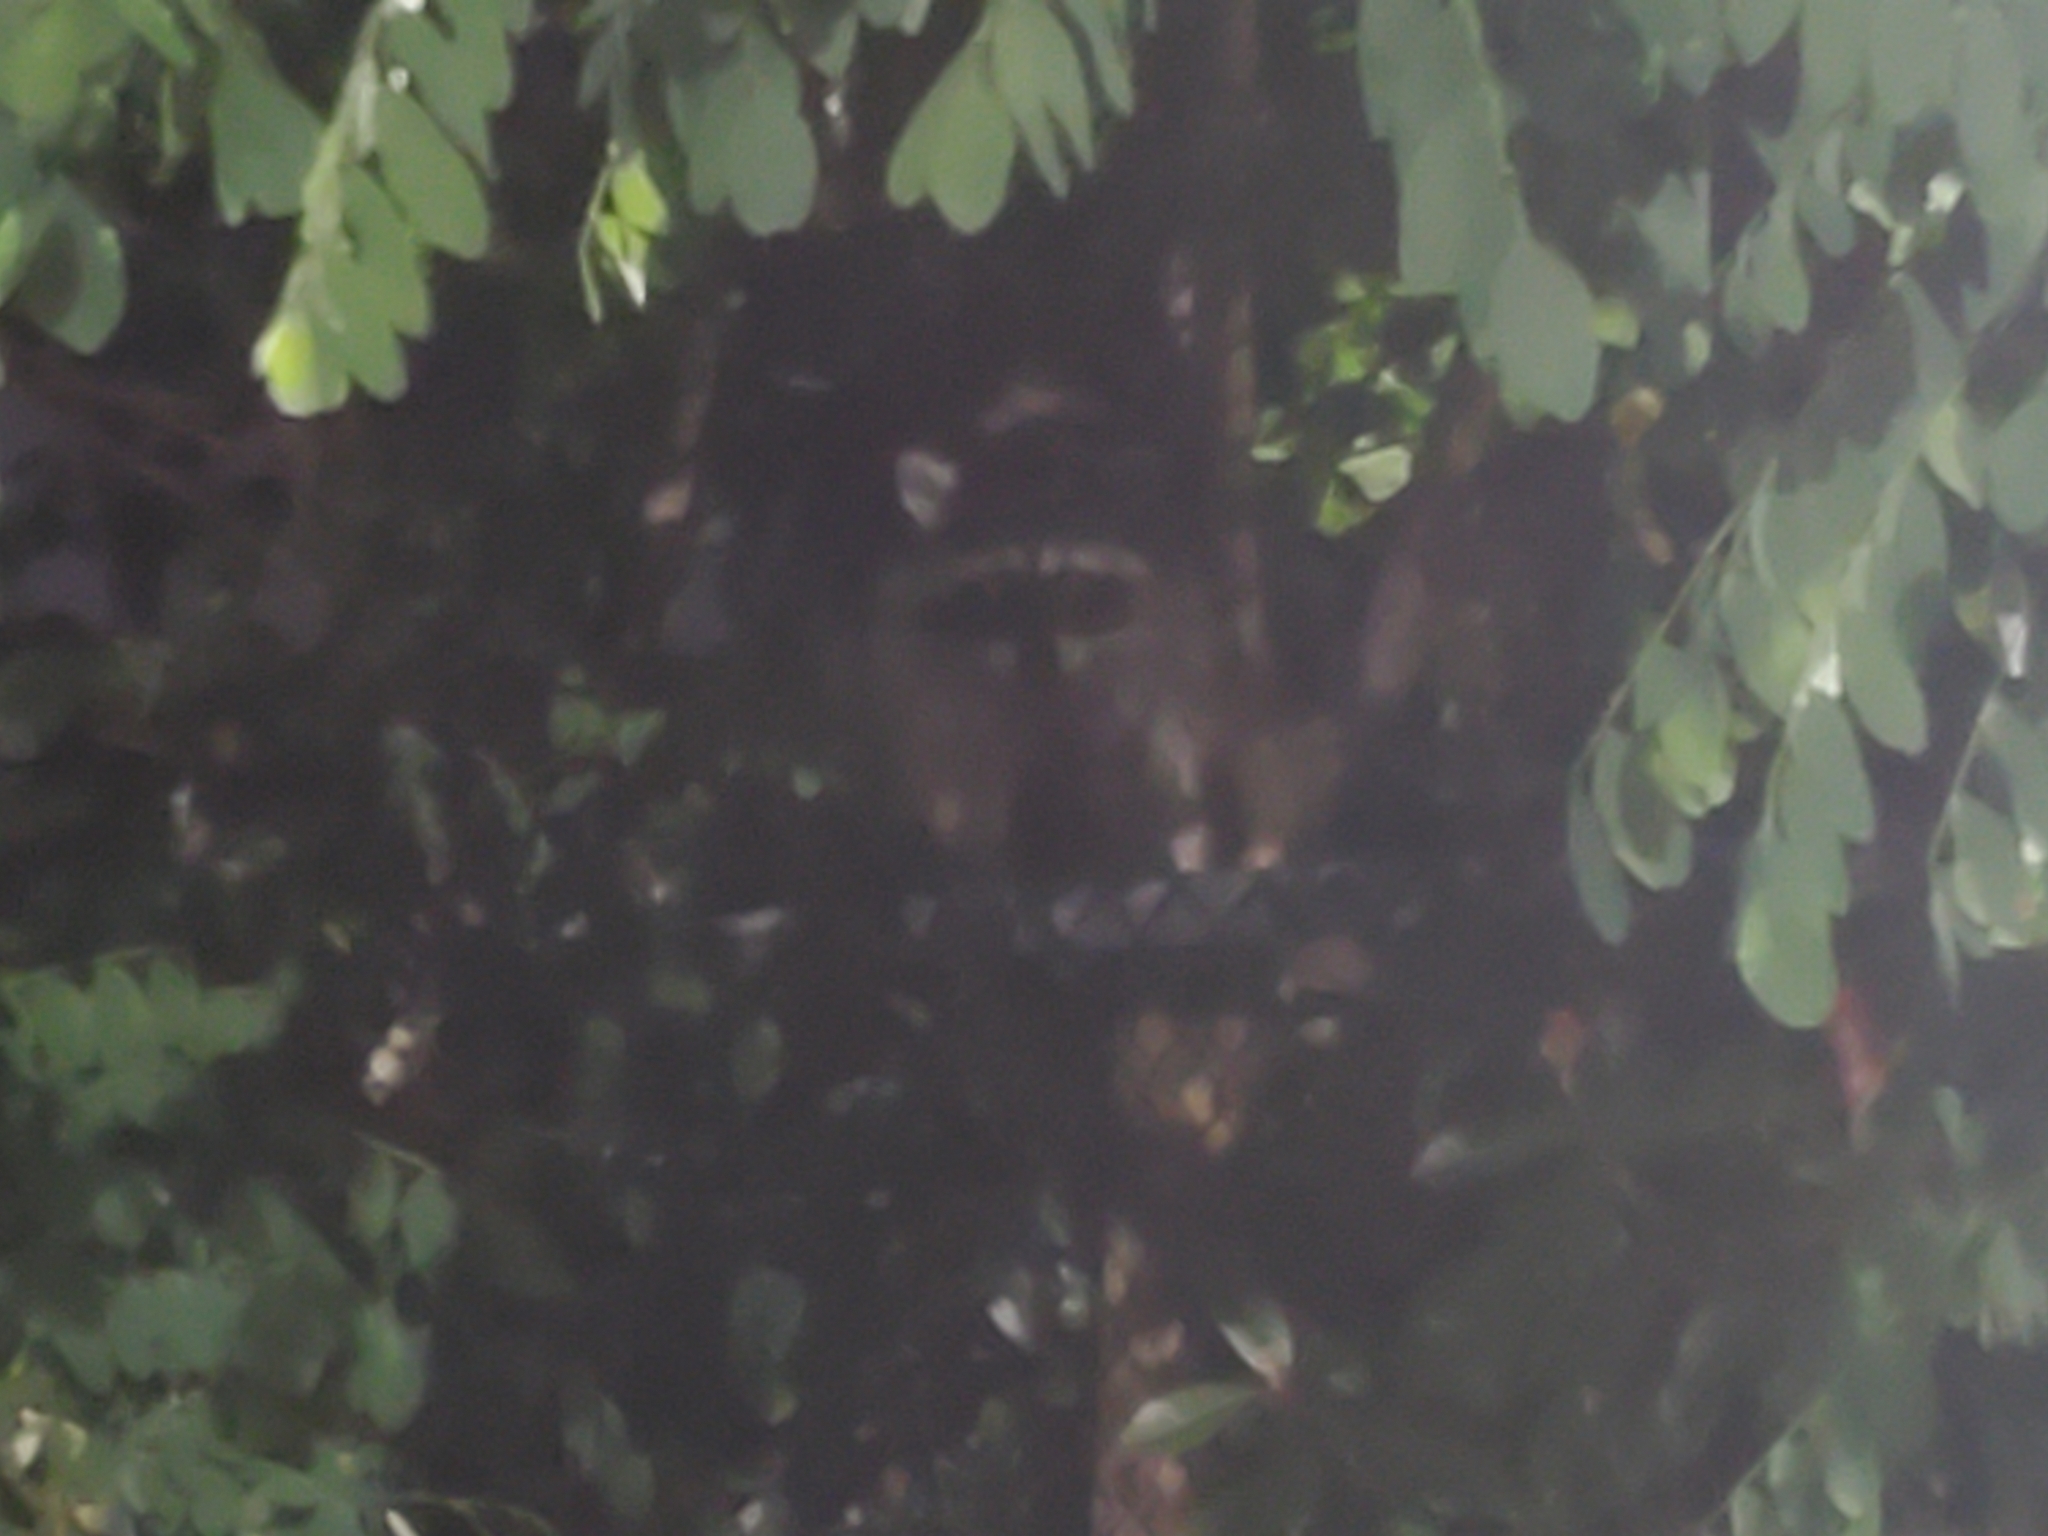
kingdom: Animalia
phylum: Chordata
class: Mammalia
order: Carnivora
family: Procyonidae
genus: Procyon
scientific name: Procyon lotor
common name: Raccoon
